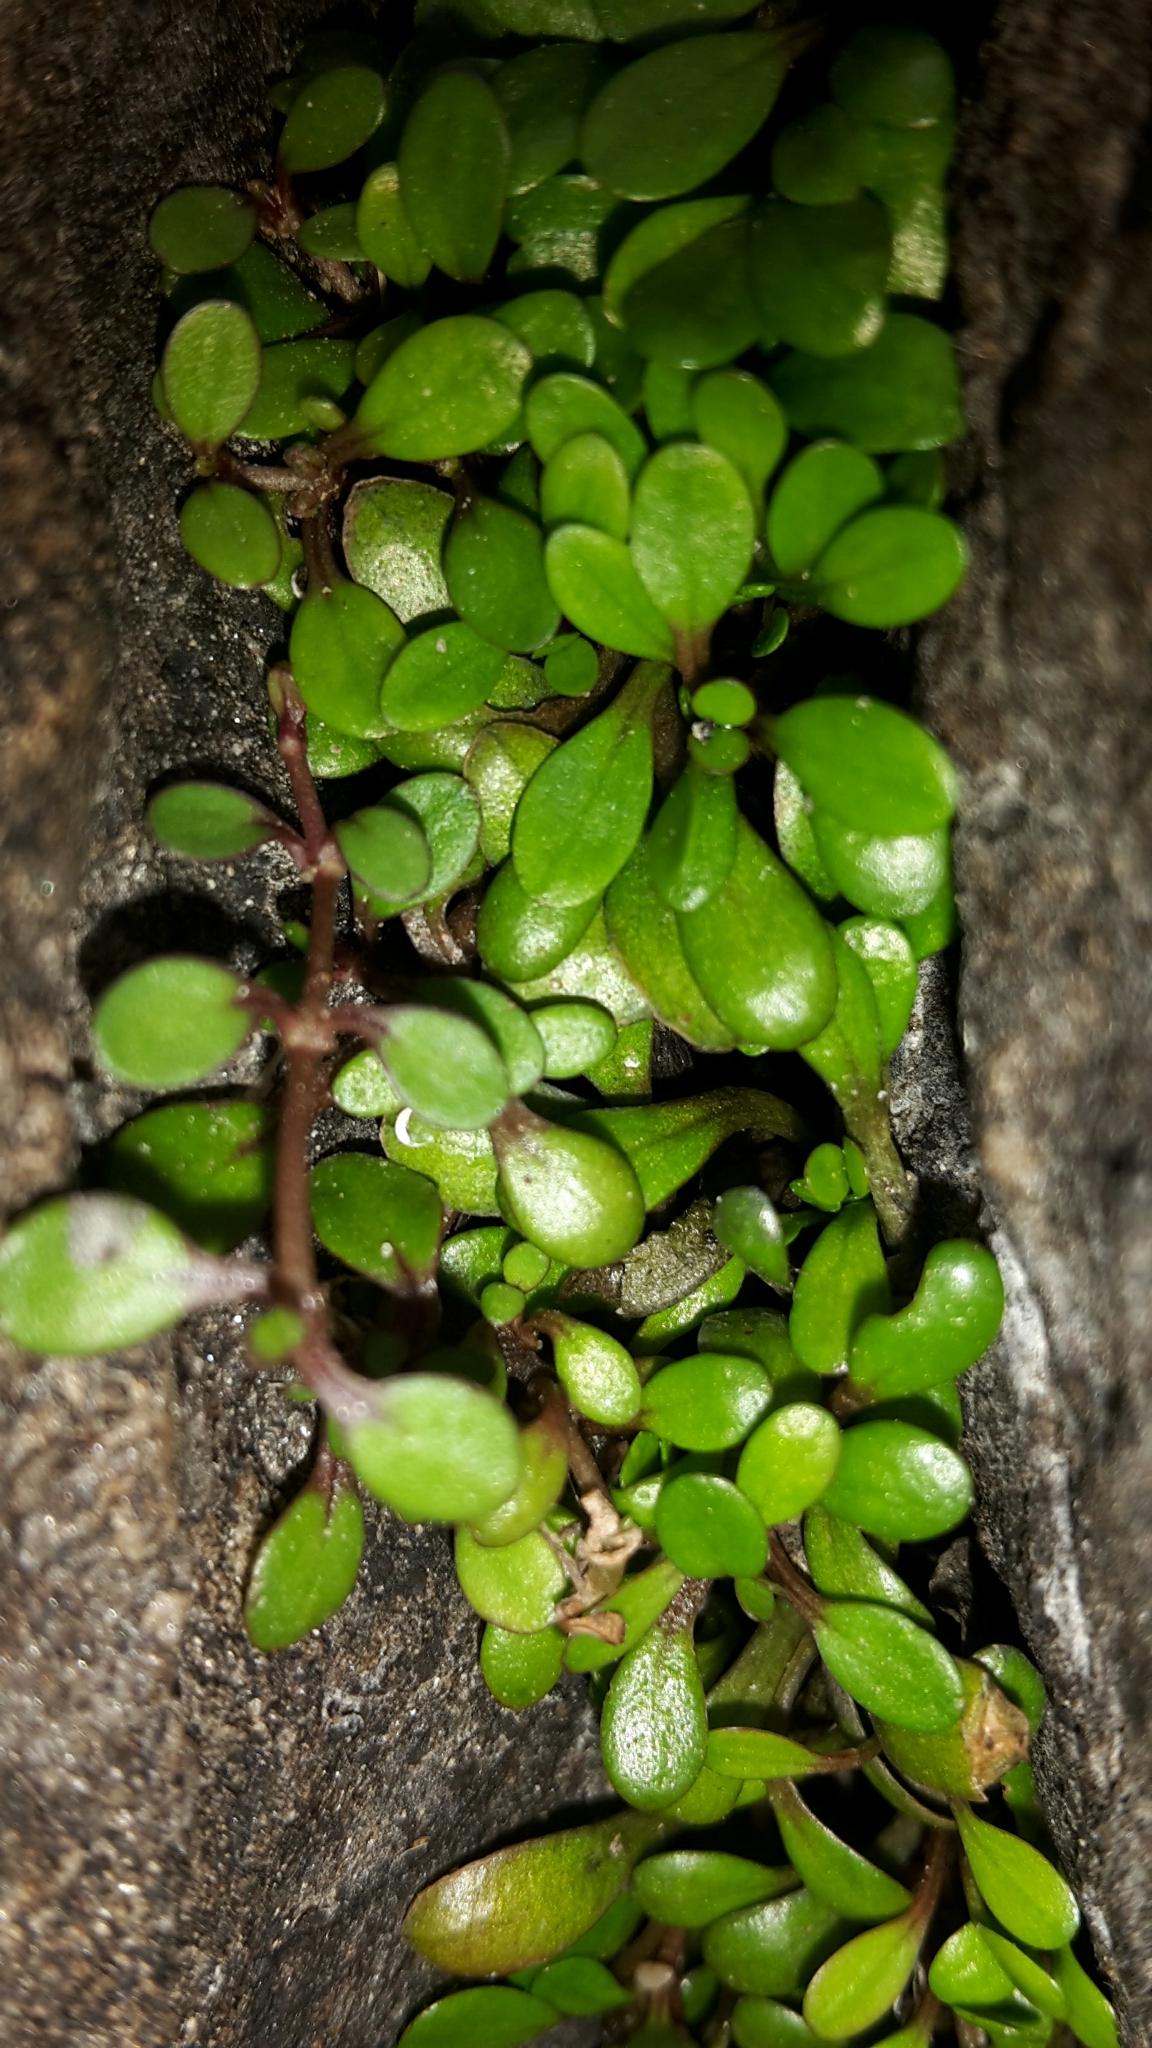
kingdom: Plantae
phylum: Tracheophyta
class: Magnoliopsida
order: Lamiales
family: Phrymaceae
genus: Glossostigma
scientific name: Glossostigma elatinoides
